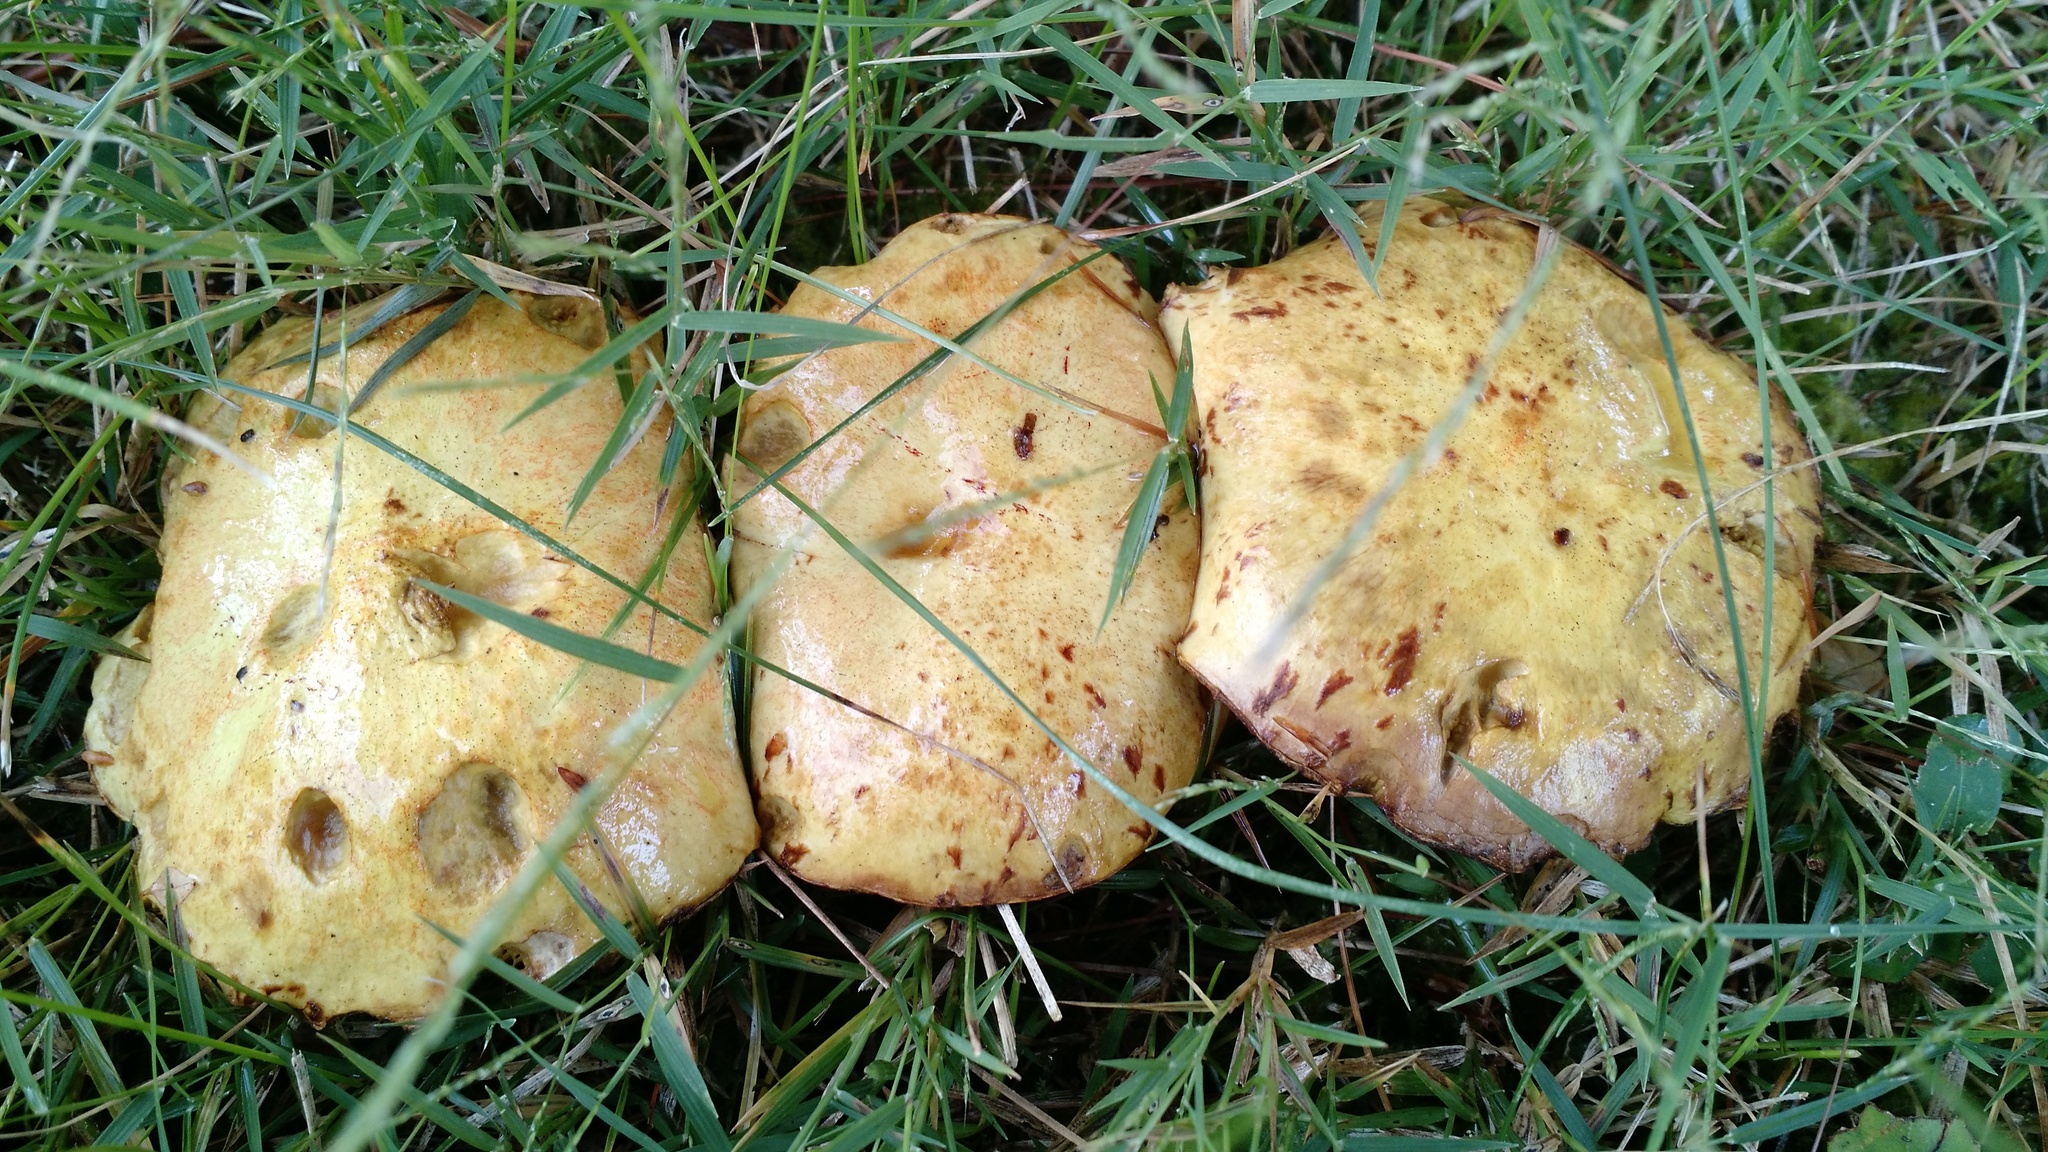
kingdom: Fungi
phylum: Basidiomycota
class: Agaricomycetes
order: Boletales
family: Suillaceae
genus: Suillus
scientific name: Suillus americanus
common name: Chicken fat mushroom
